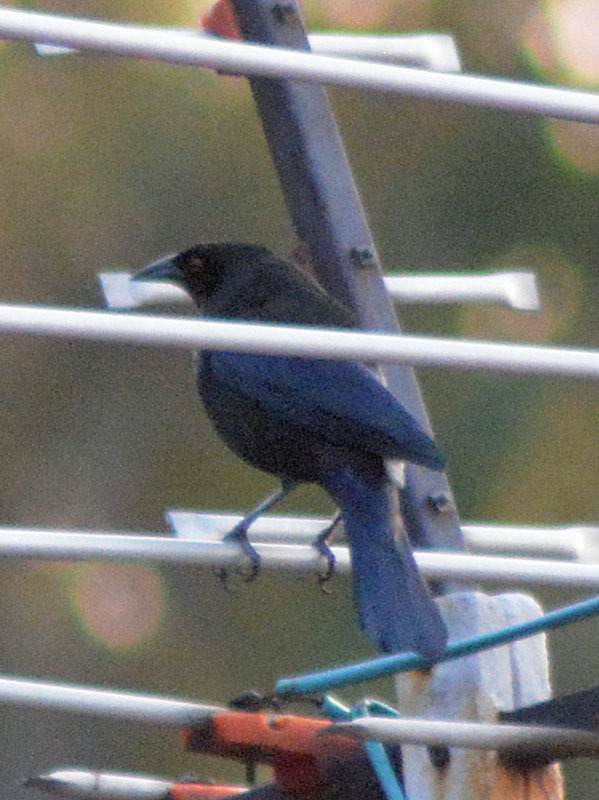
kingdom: Animalia
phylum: Chordata
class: Aves
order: Passeriformes
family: Icteridae
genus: Molothrus
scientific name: Molothrus aeneus
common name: Bronzed cowbird
